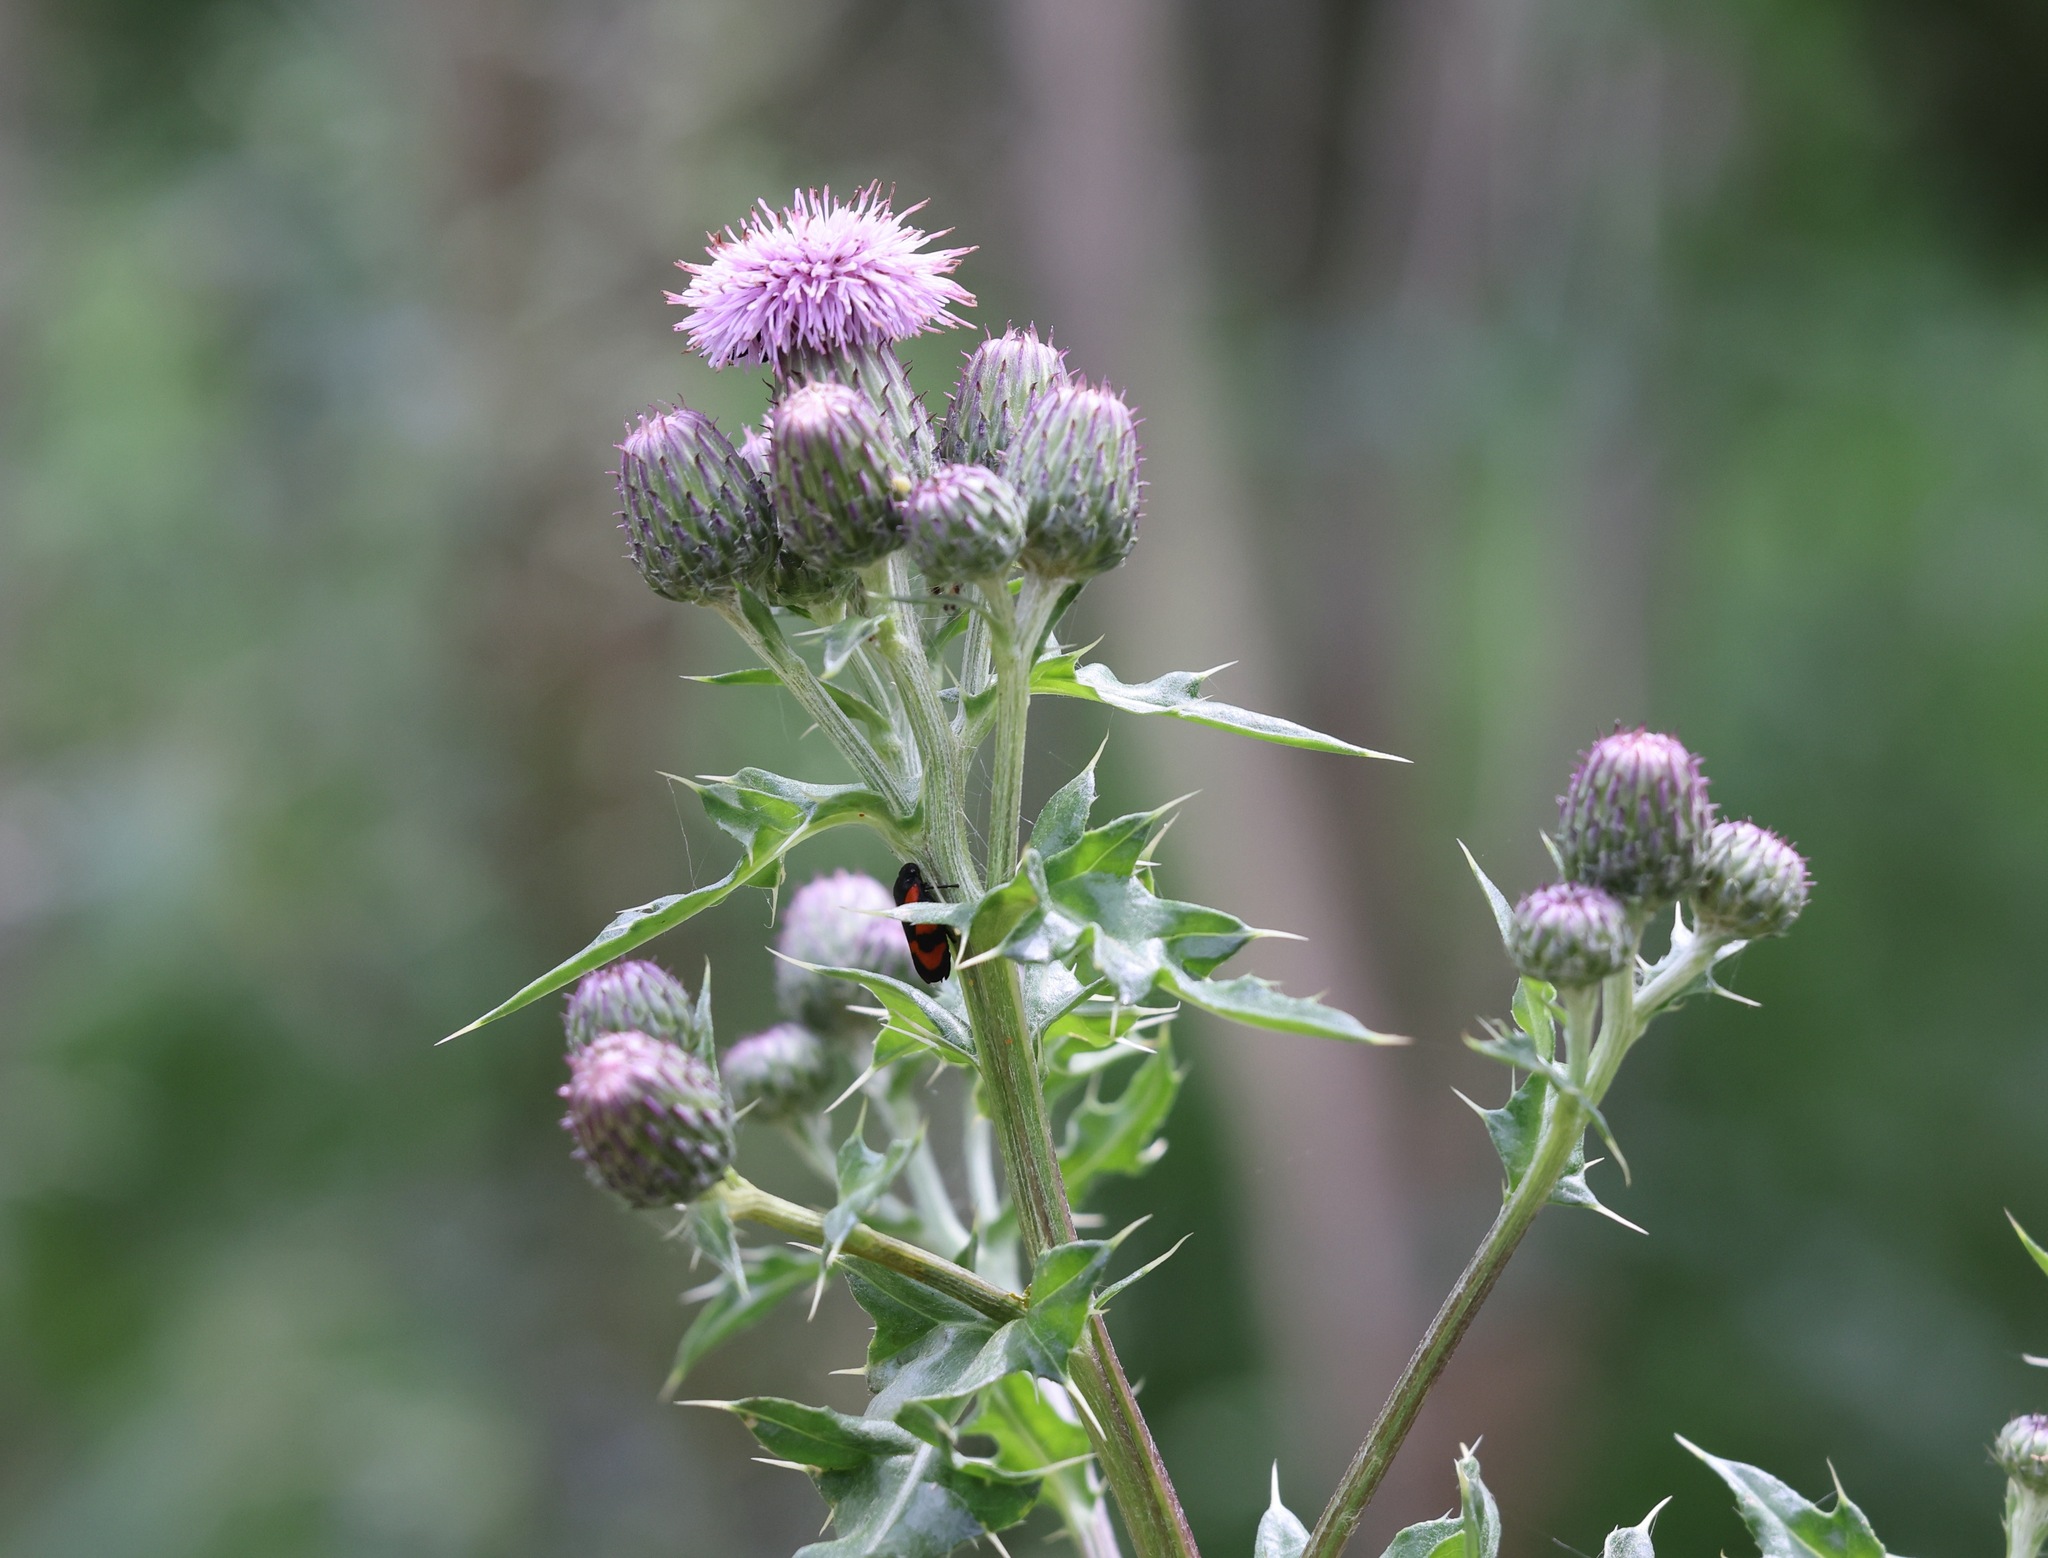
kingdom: Plantae
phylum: Tracheophyta
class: Magnoliopsida
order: Asterales
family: Asteraceae
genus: Cirsium
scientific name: Cirsium arvense
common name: Creeping thistle
